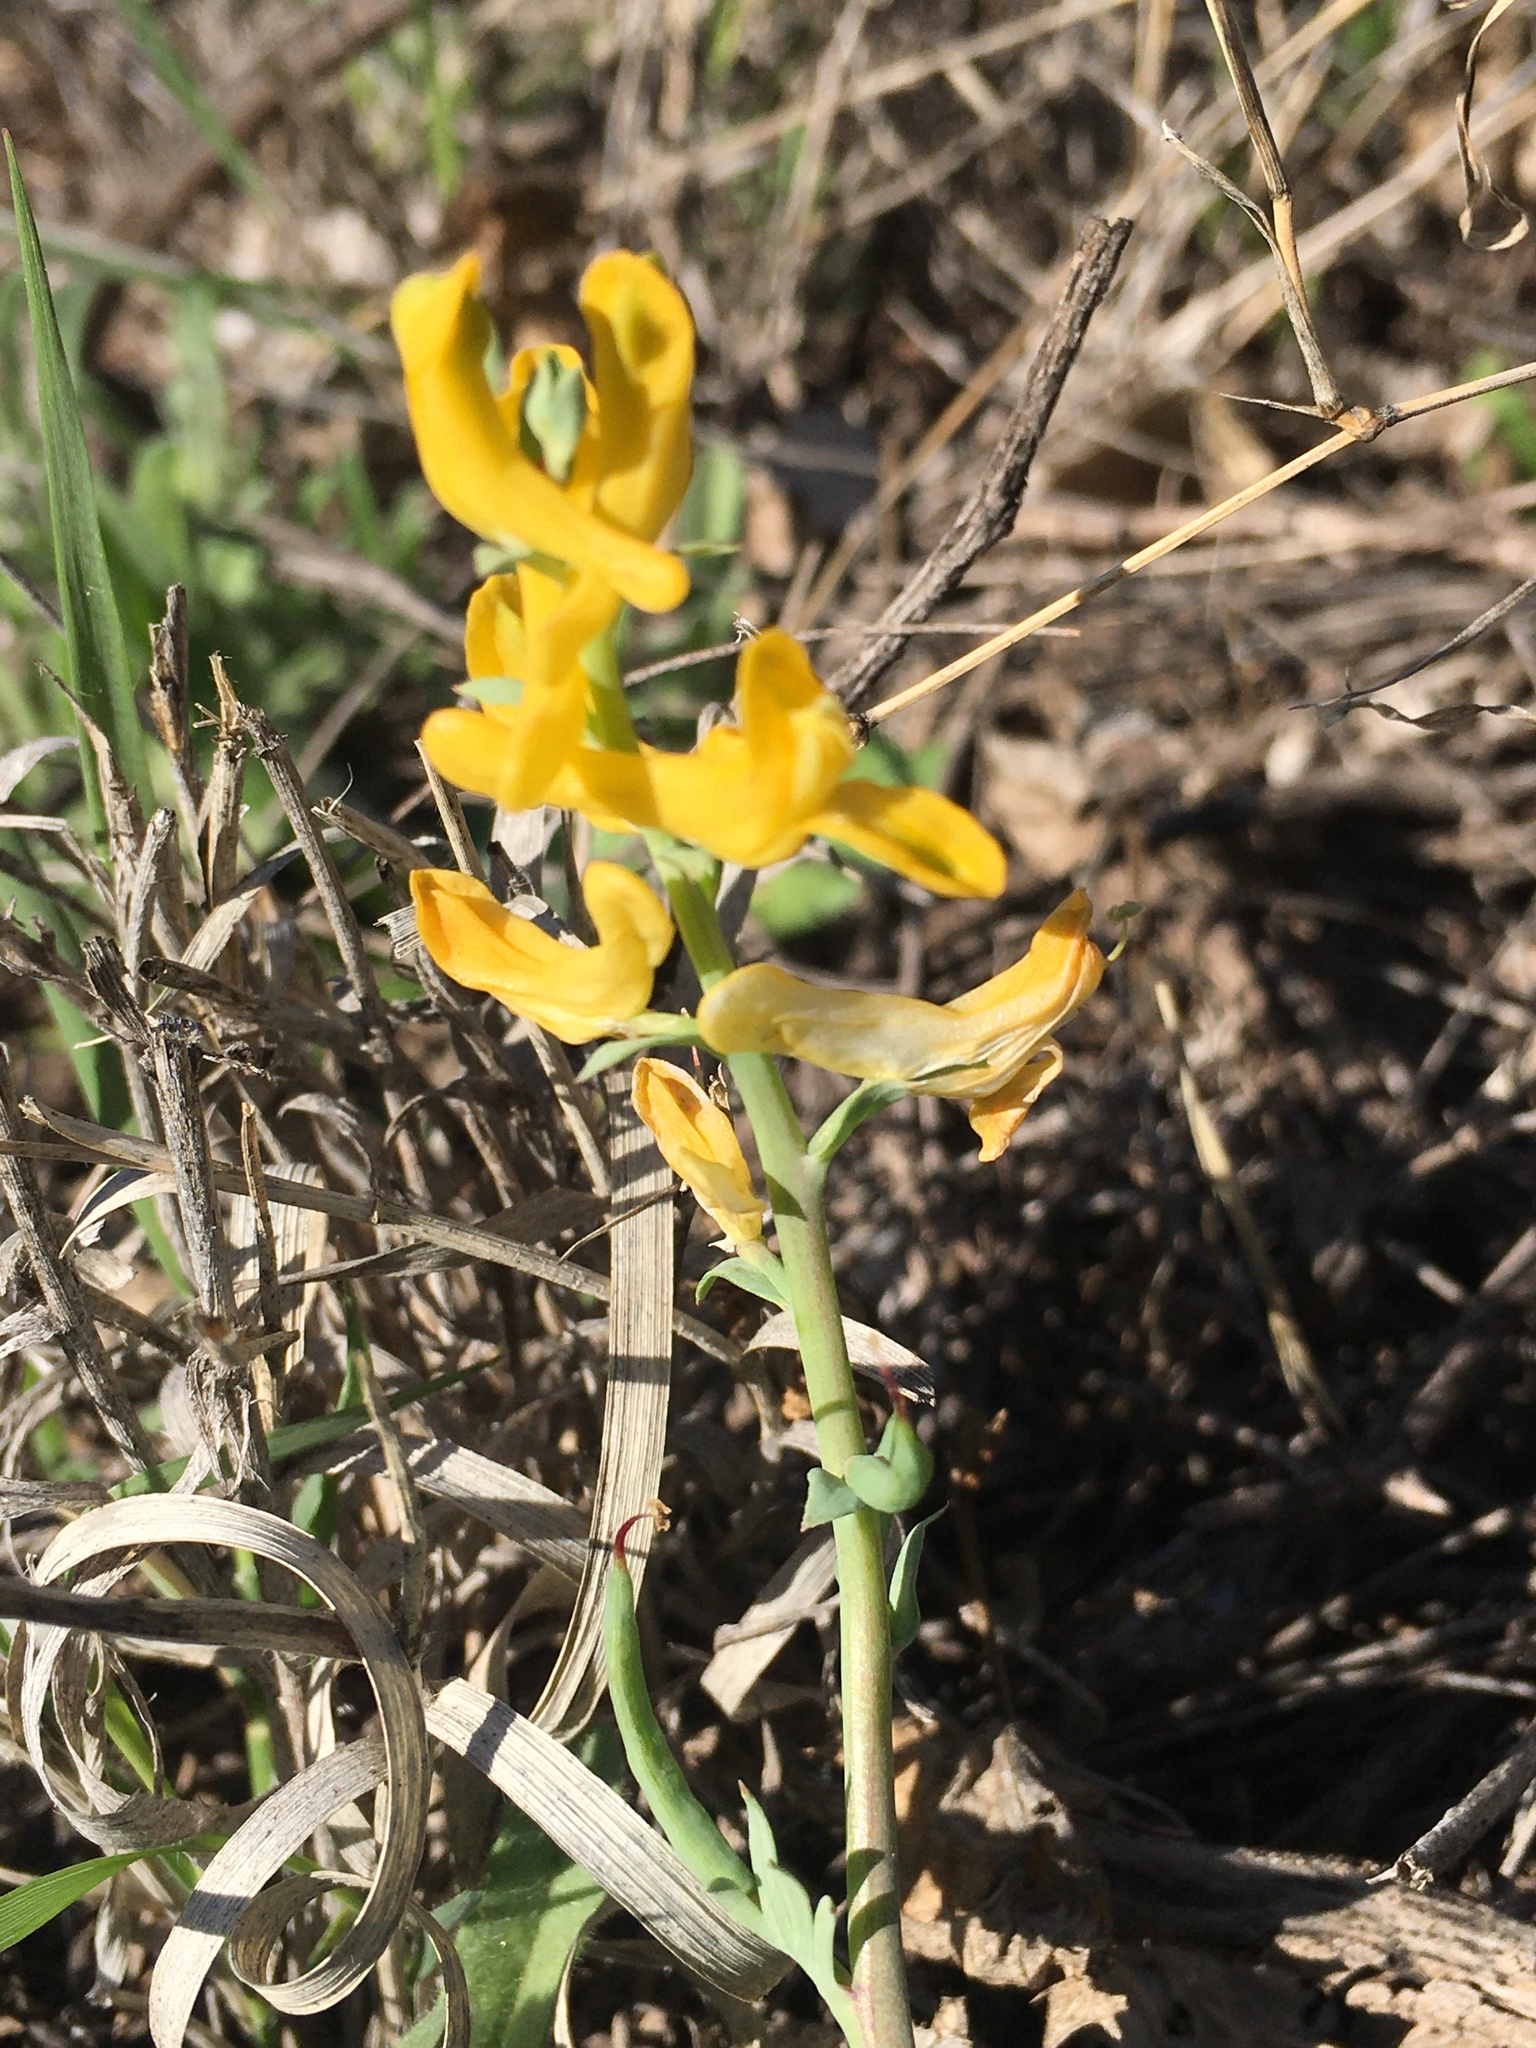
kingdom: Plantae
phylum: Tracheophyta
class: Magnoliopsida
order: Ranunculales
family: Papaveraceae
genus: Corydalis
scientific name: Corydalis aurea
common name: Golden corydalis
